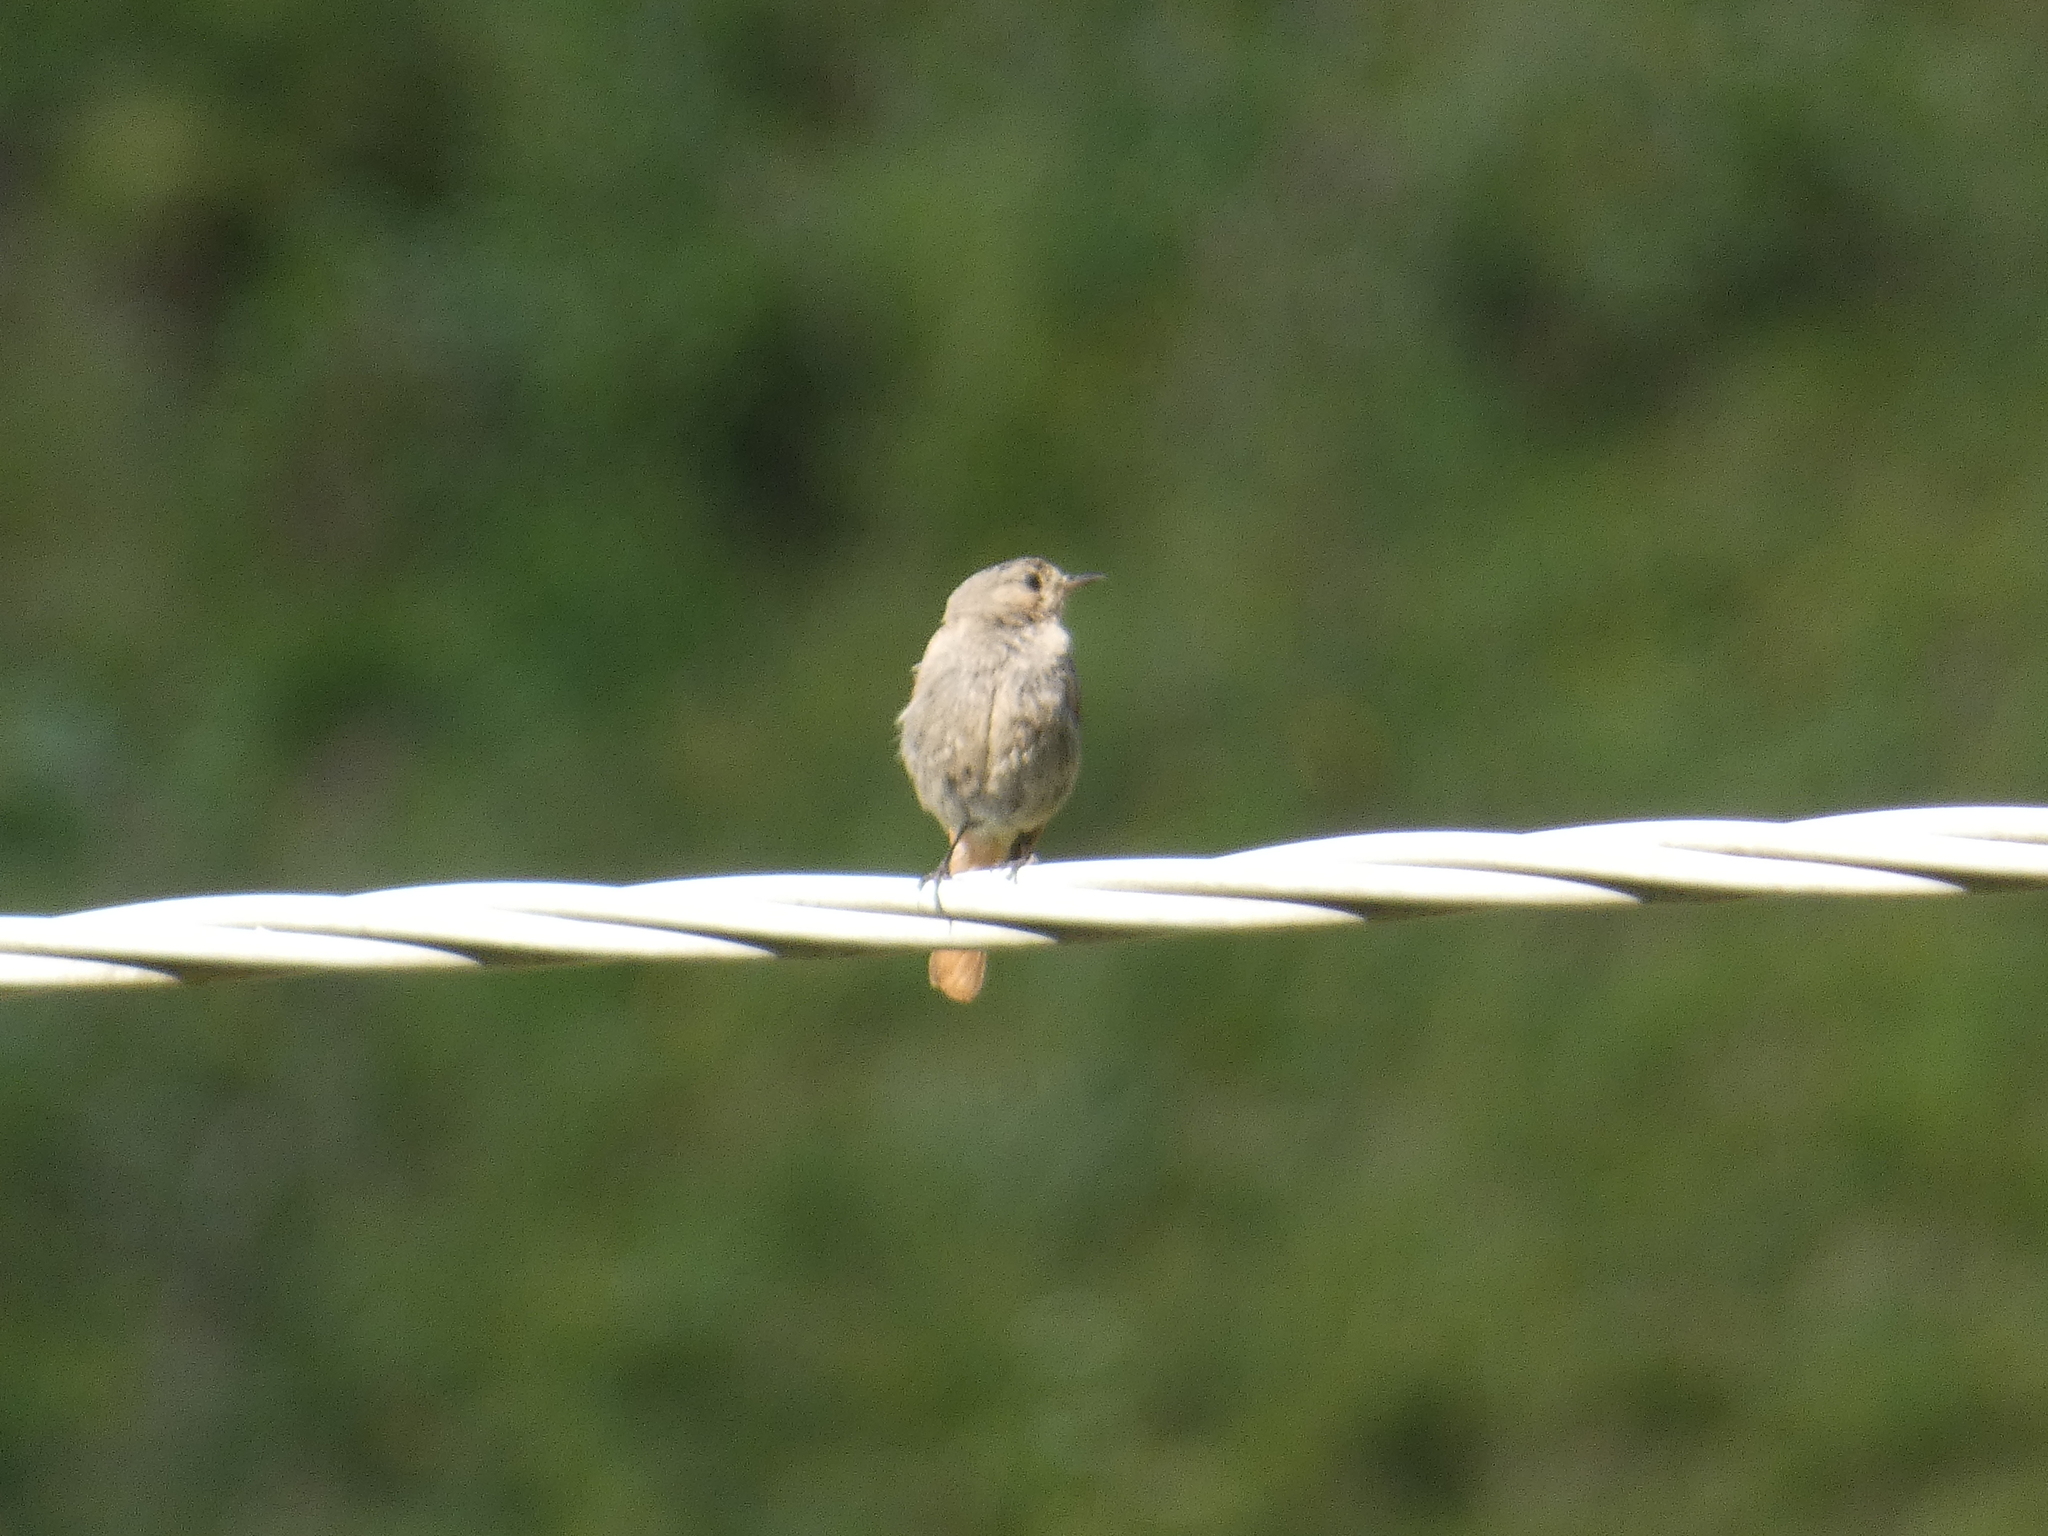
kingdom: Animalia
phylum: Chordata
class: Aves
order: Passeriformes
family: Muscicapidae
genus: Phoenicurus
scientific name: Phoenicurus ochruros
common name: Black redstart
